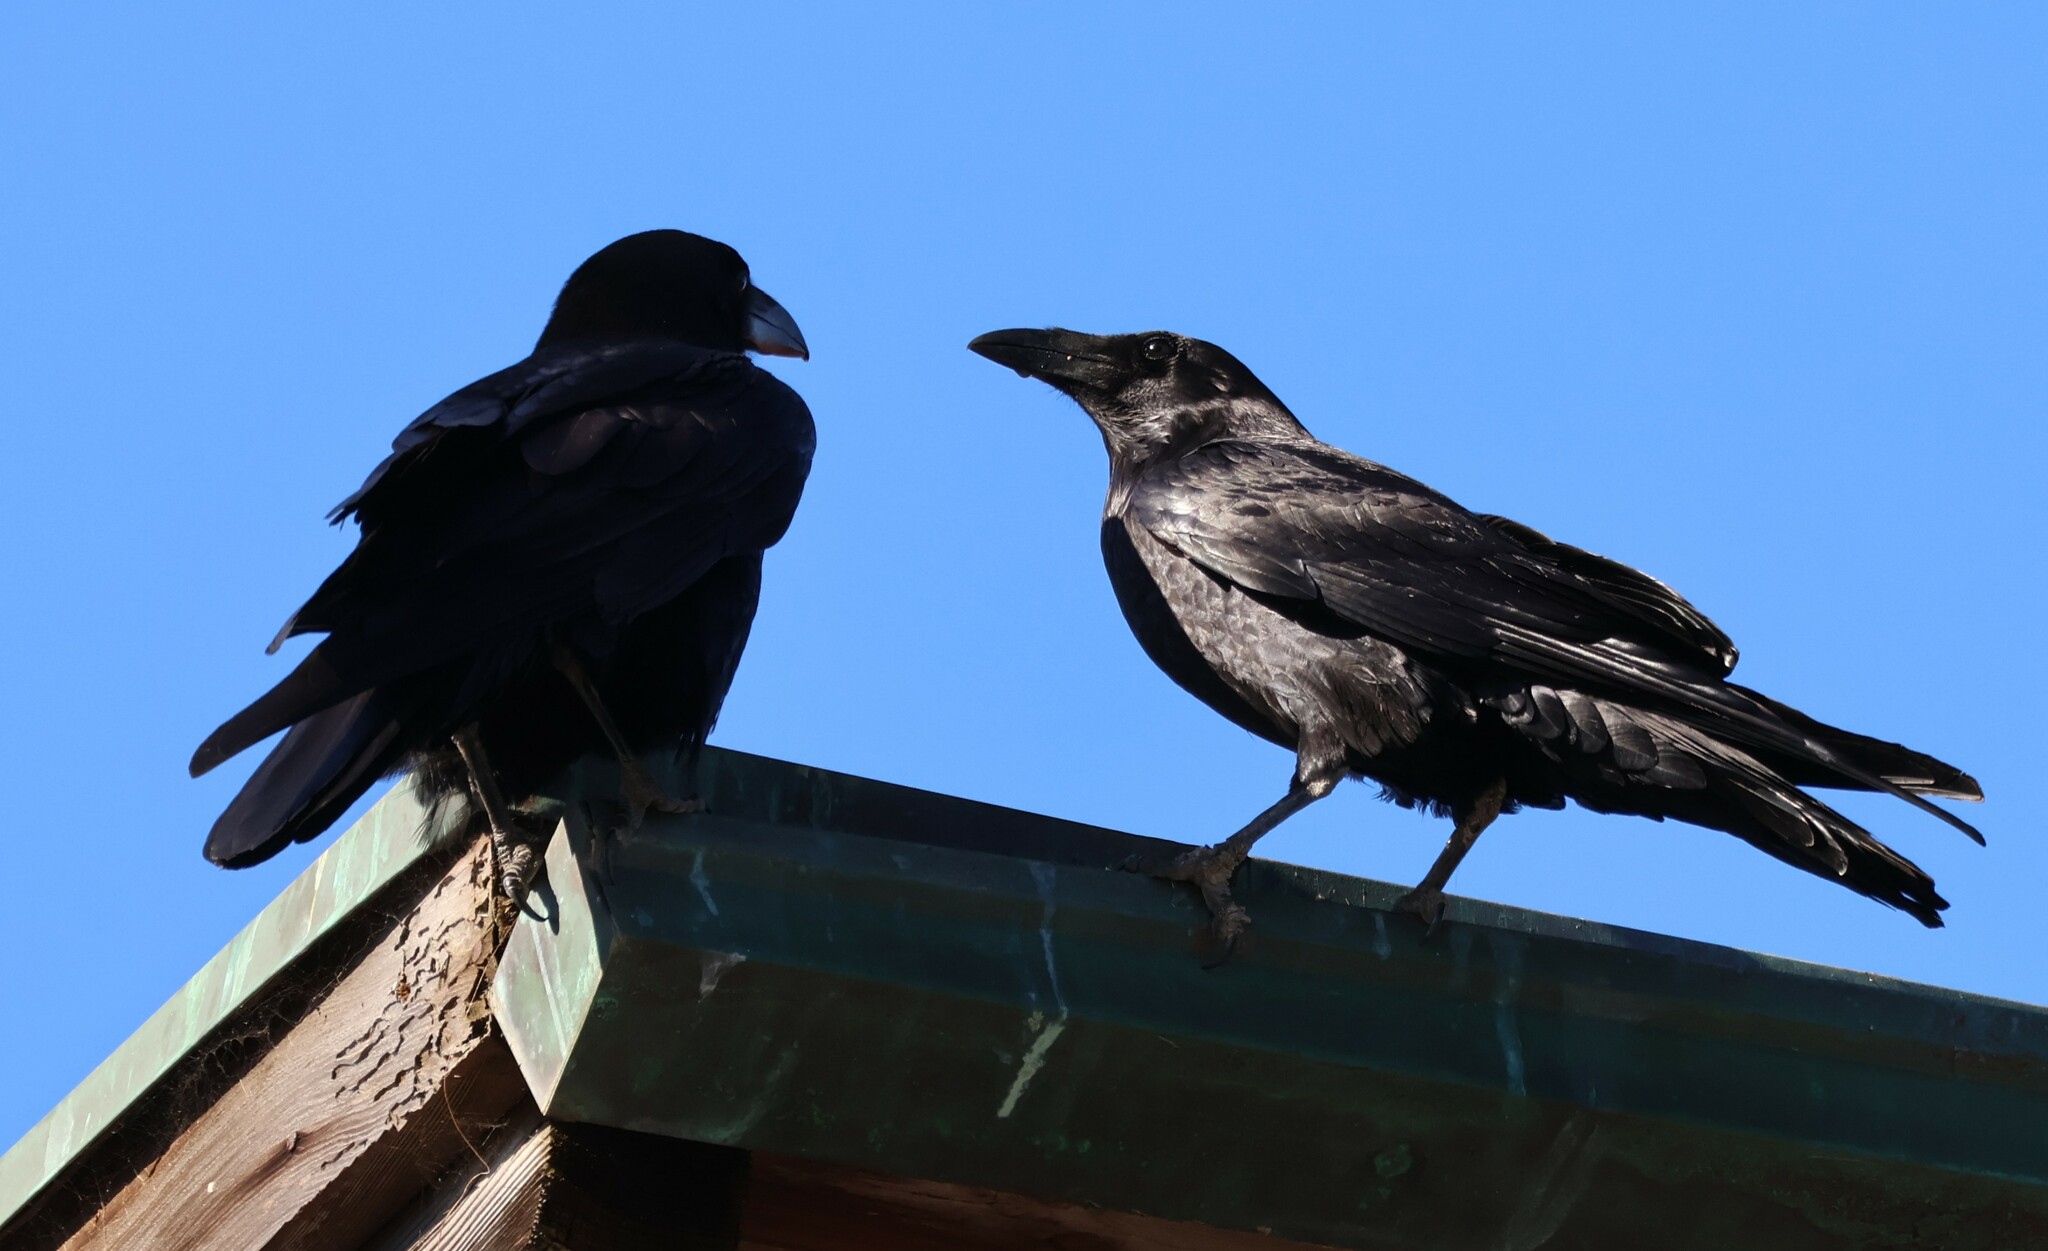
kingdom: Animalia
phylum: Chordata
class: Aves
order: Passeriformes
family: Corvidae
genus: Corvus
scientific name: Corvus corax
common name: Common raven
